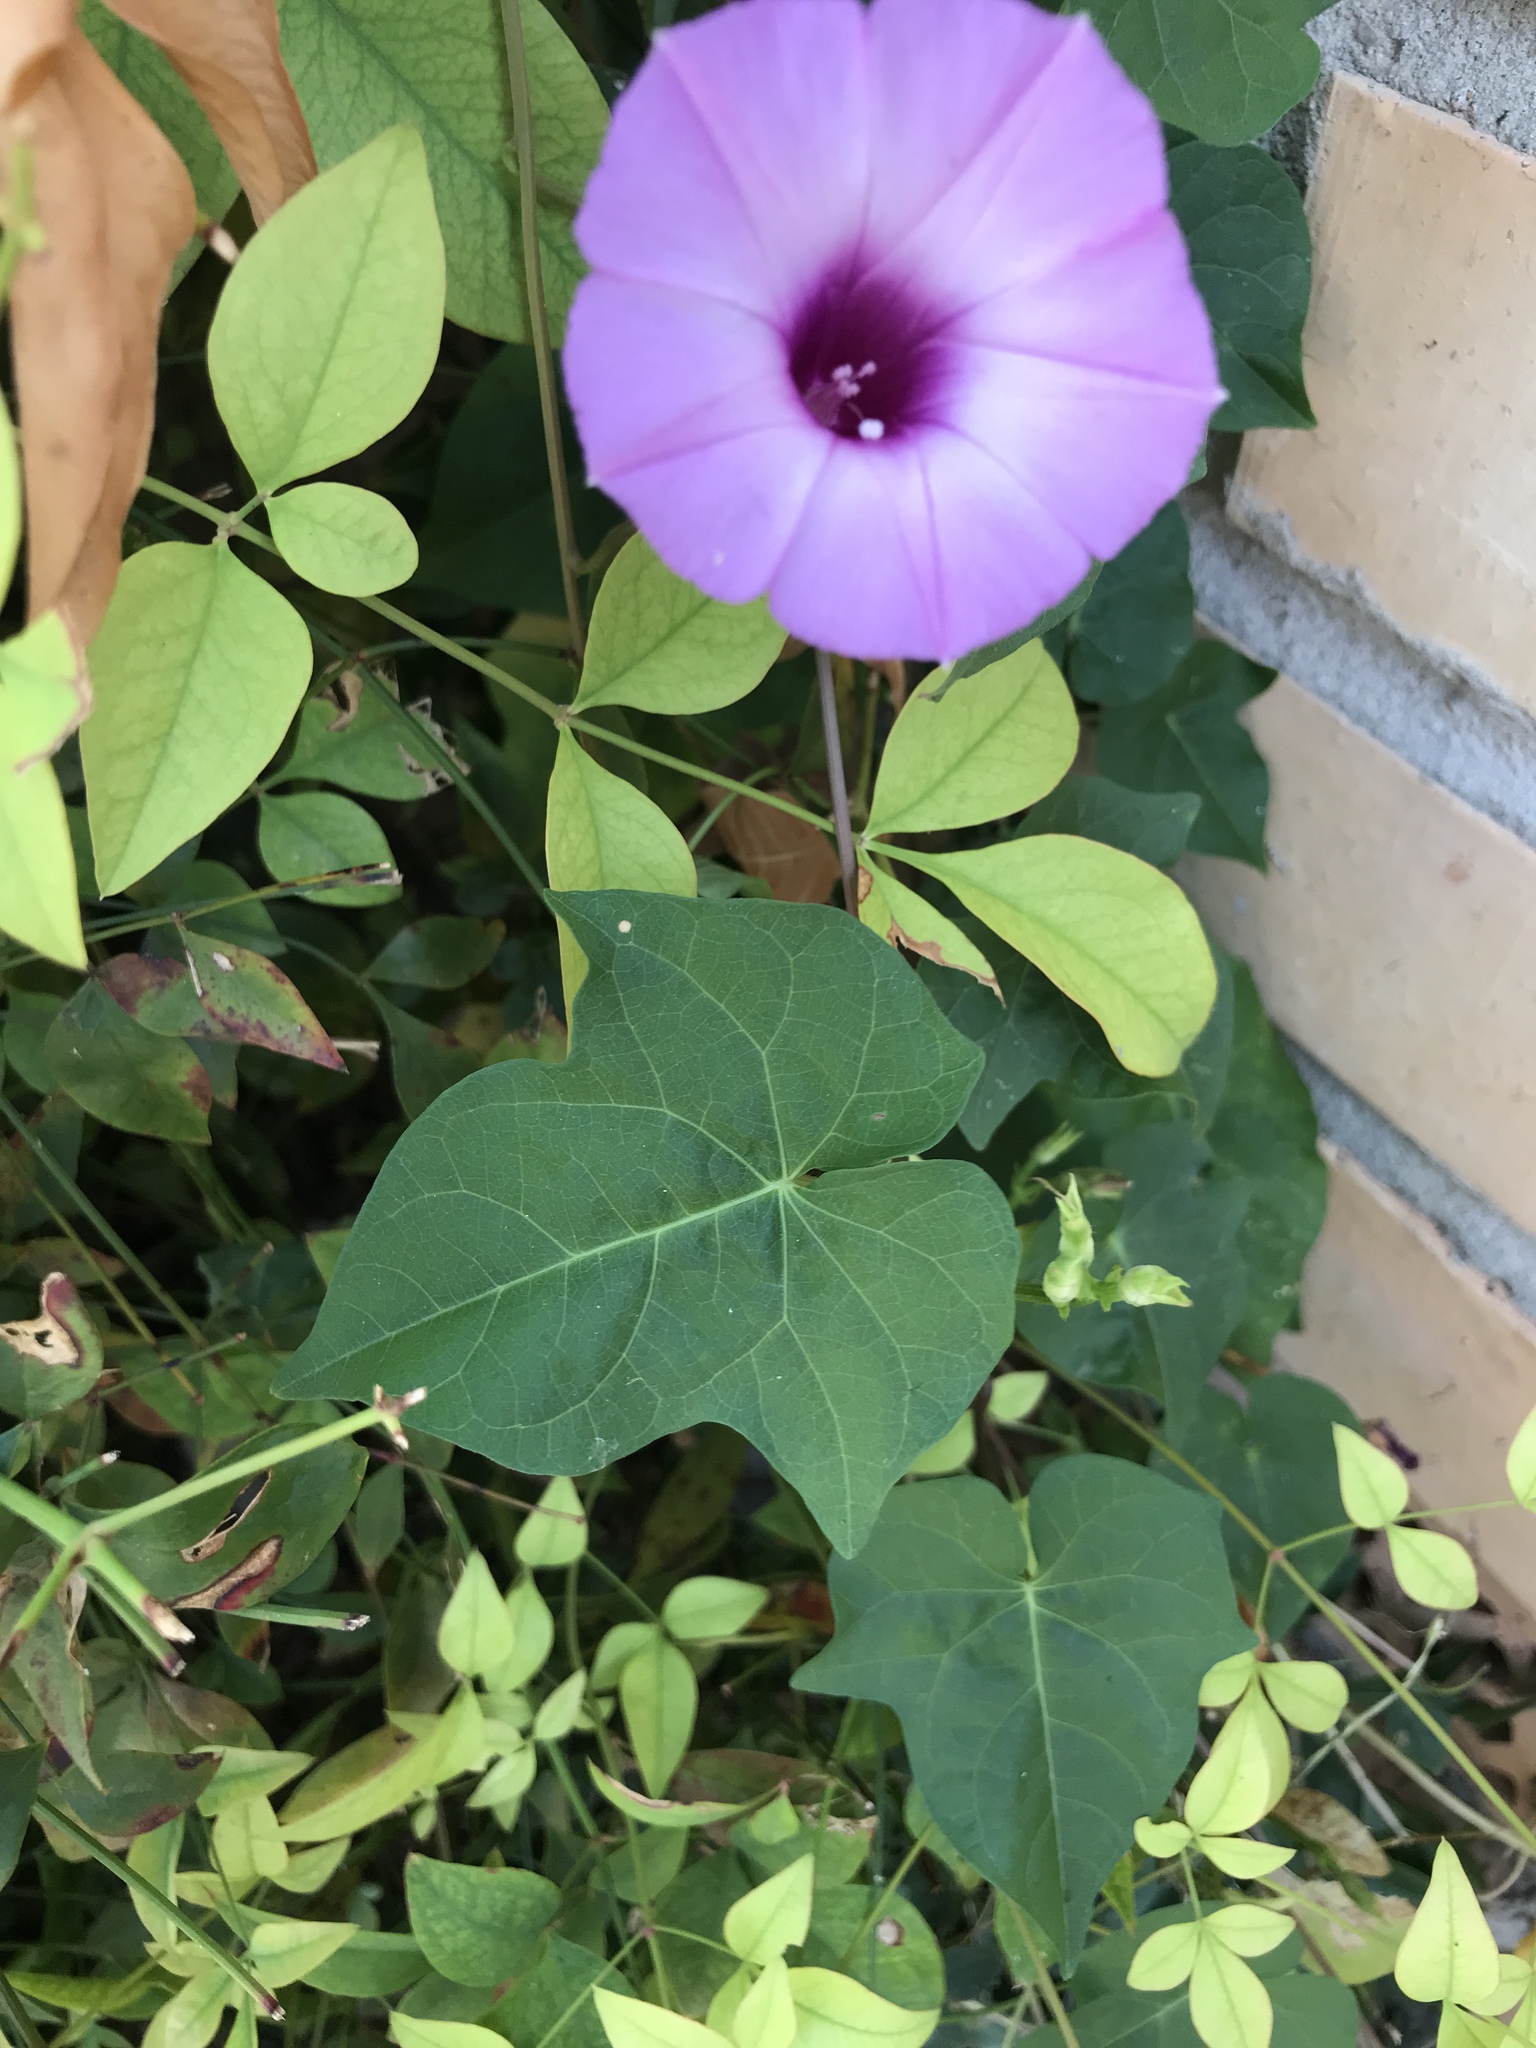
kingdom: Plantae
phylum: Tracheophyta
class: Magnoliopsida
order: Solanales
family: Convolvulaceae
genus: Ipomoea
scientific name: Ipomoea cordatotriloba
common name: Cotton morning glory
